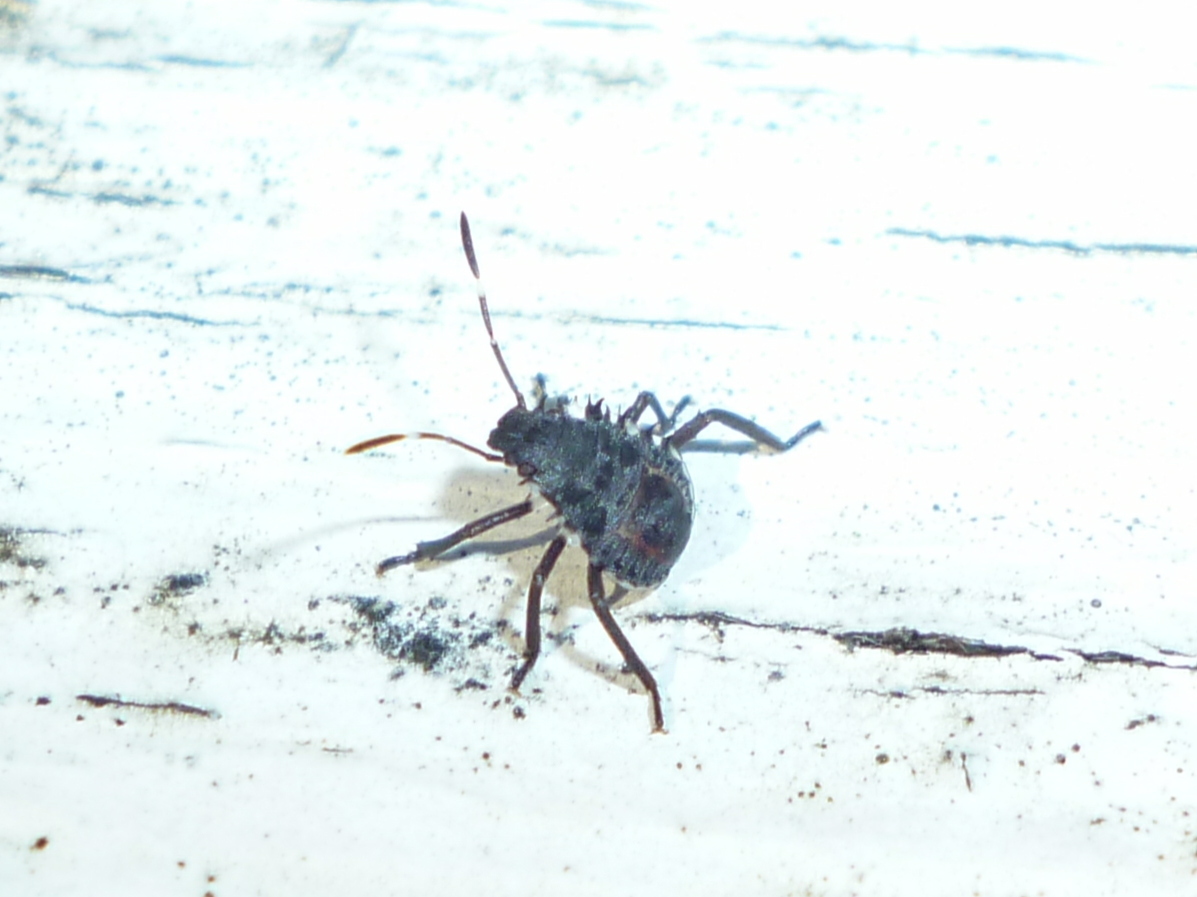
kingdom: Animalia
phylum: Arthropoda
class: Insecta
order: Hemiptera
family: Pentatomidae
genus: Halyomorpha
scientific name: Halyomorpha halys
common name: Brown marmorated stink bug
